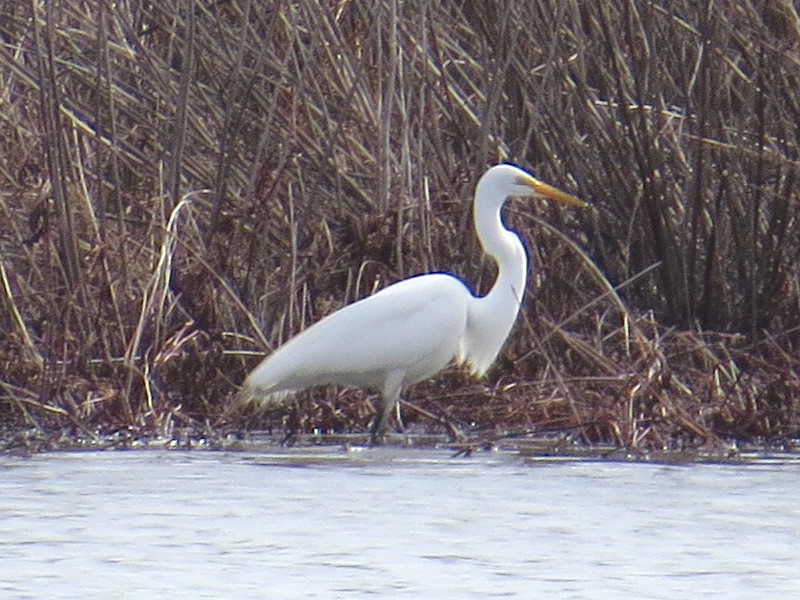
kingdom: Animalia
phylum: Chordata
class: Aves
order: Pelecaniformes
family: Ardeidae
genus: Ardea
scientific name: Ardea alba
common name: Great egret
